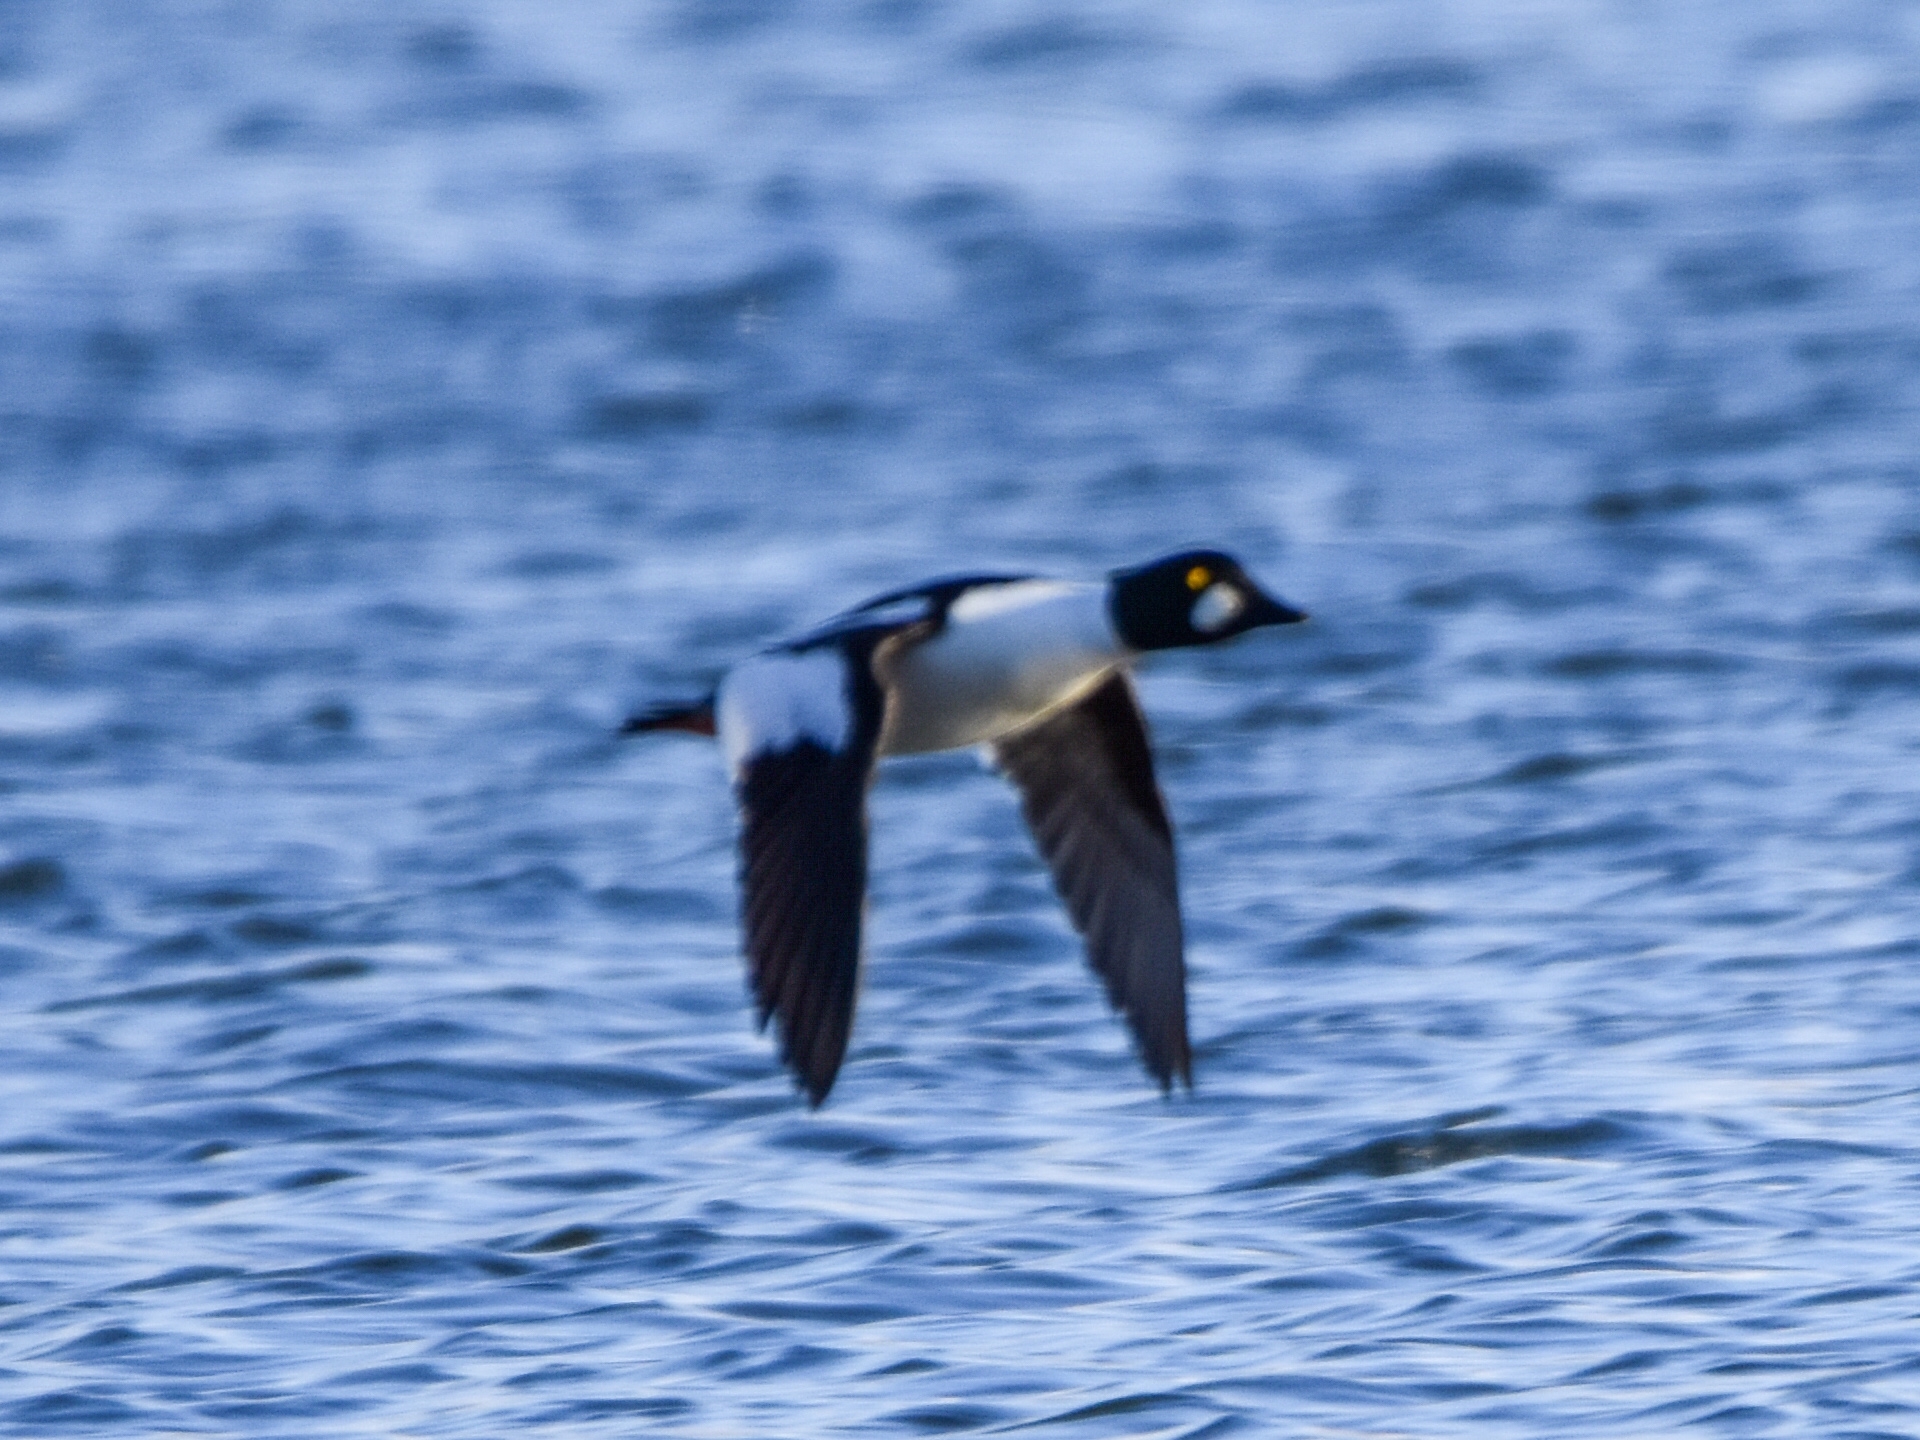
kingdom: Animalia
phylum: Chordata
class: Aves
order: Anseriformes
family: Anatidae
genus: Bucephala
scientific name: Bucephala clangula
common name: Common goldeneye
